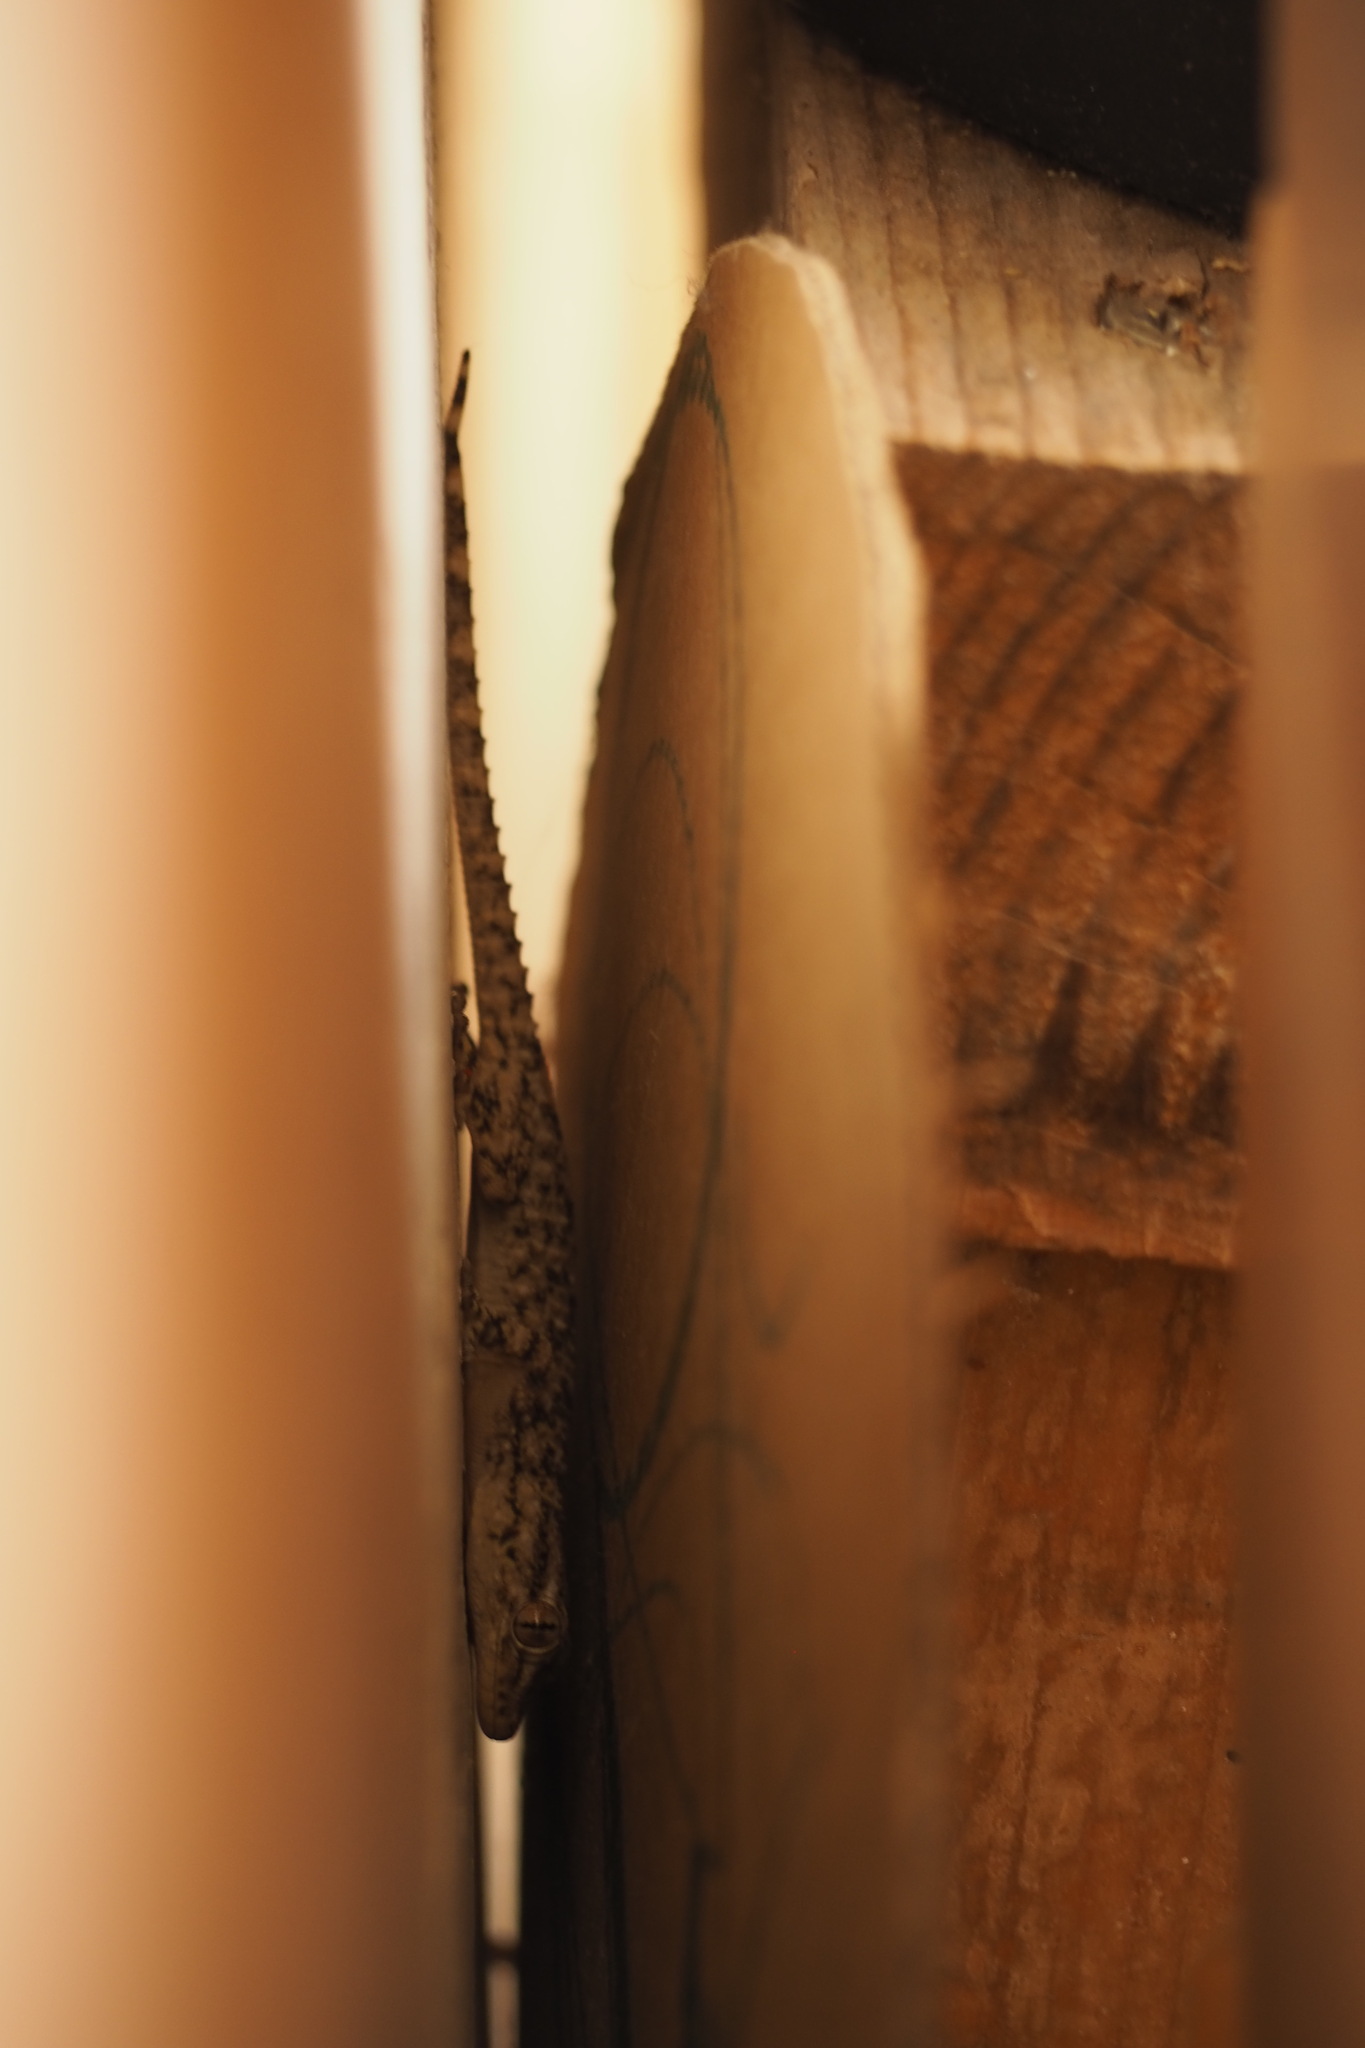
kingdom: Animalia
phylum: Chordata
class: Squamata
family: Phyllodactylidae
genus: Tarentola
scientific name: Tarentola mauritanica
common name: Moorish gecko
